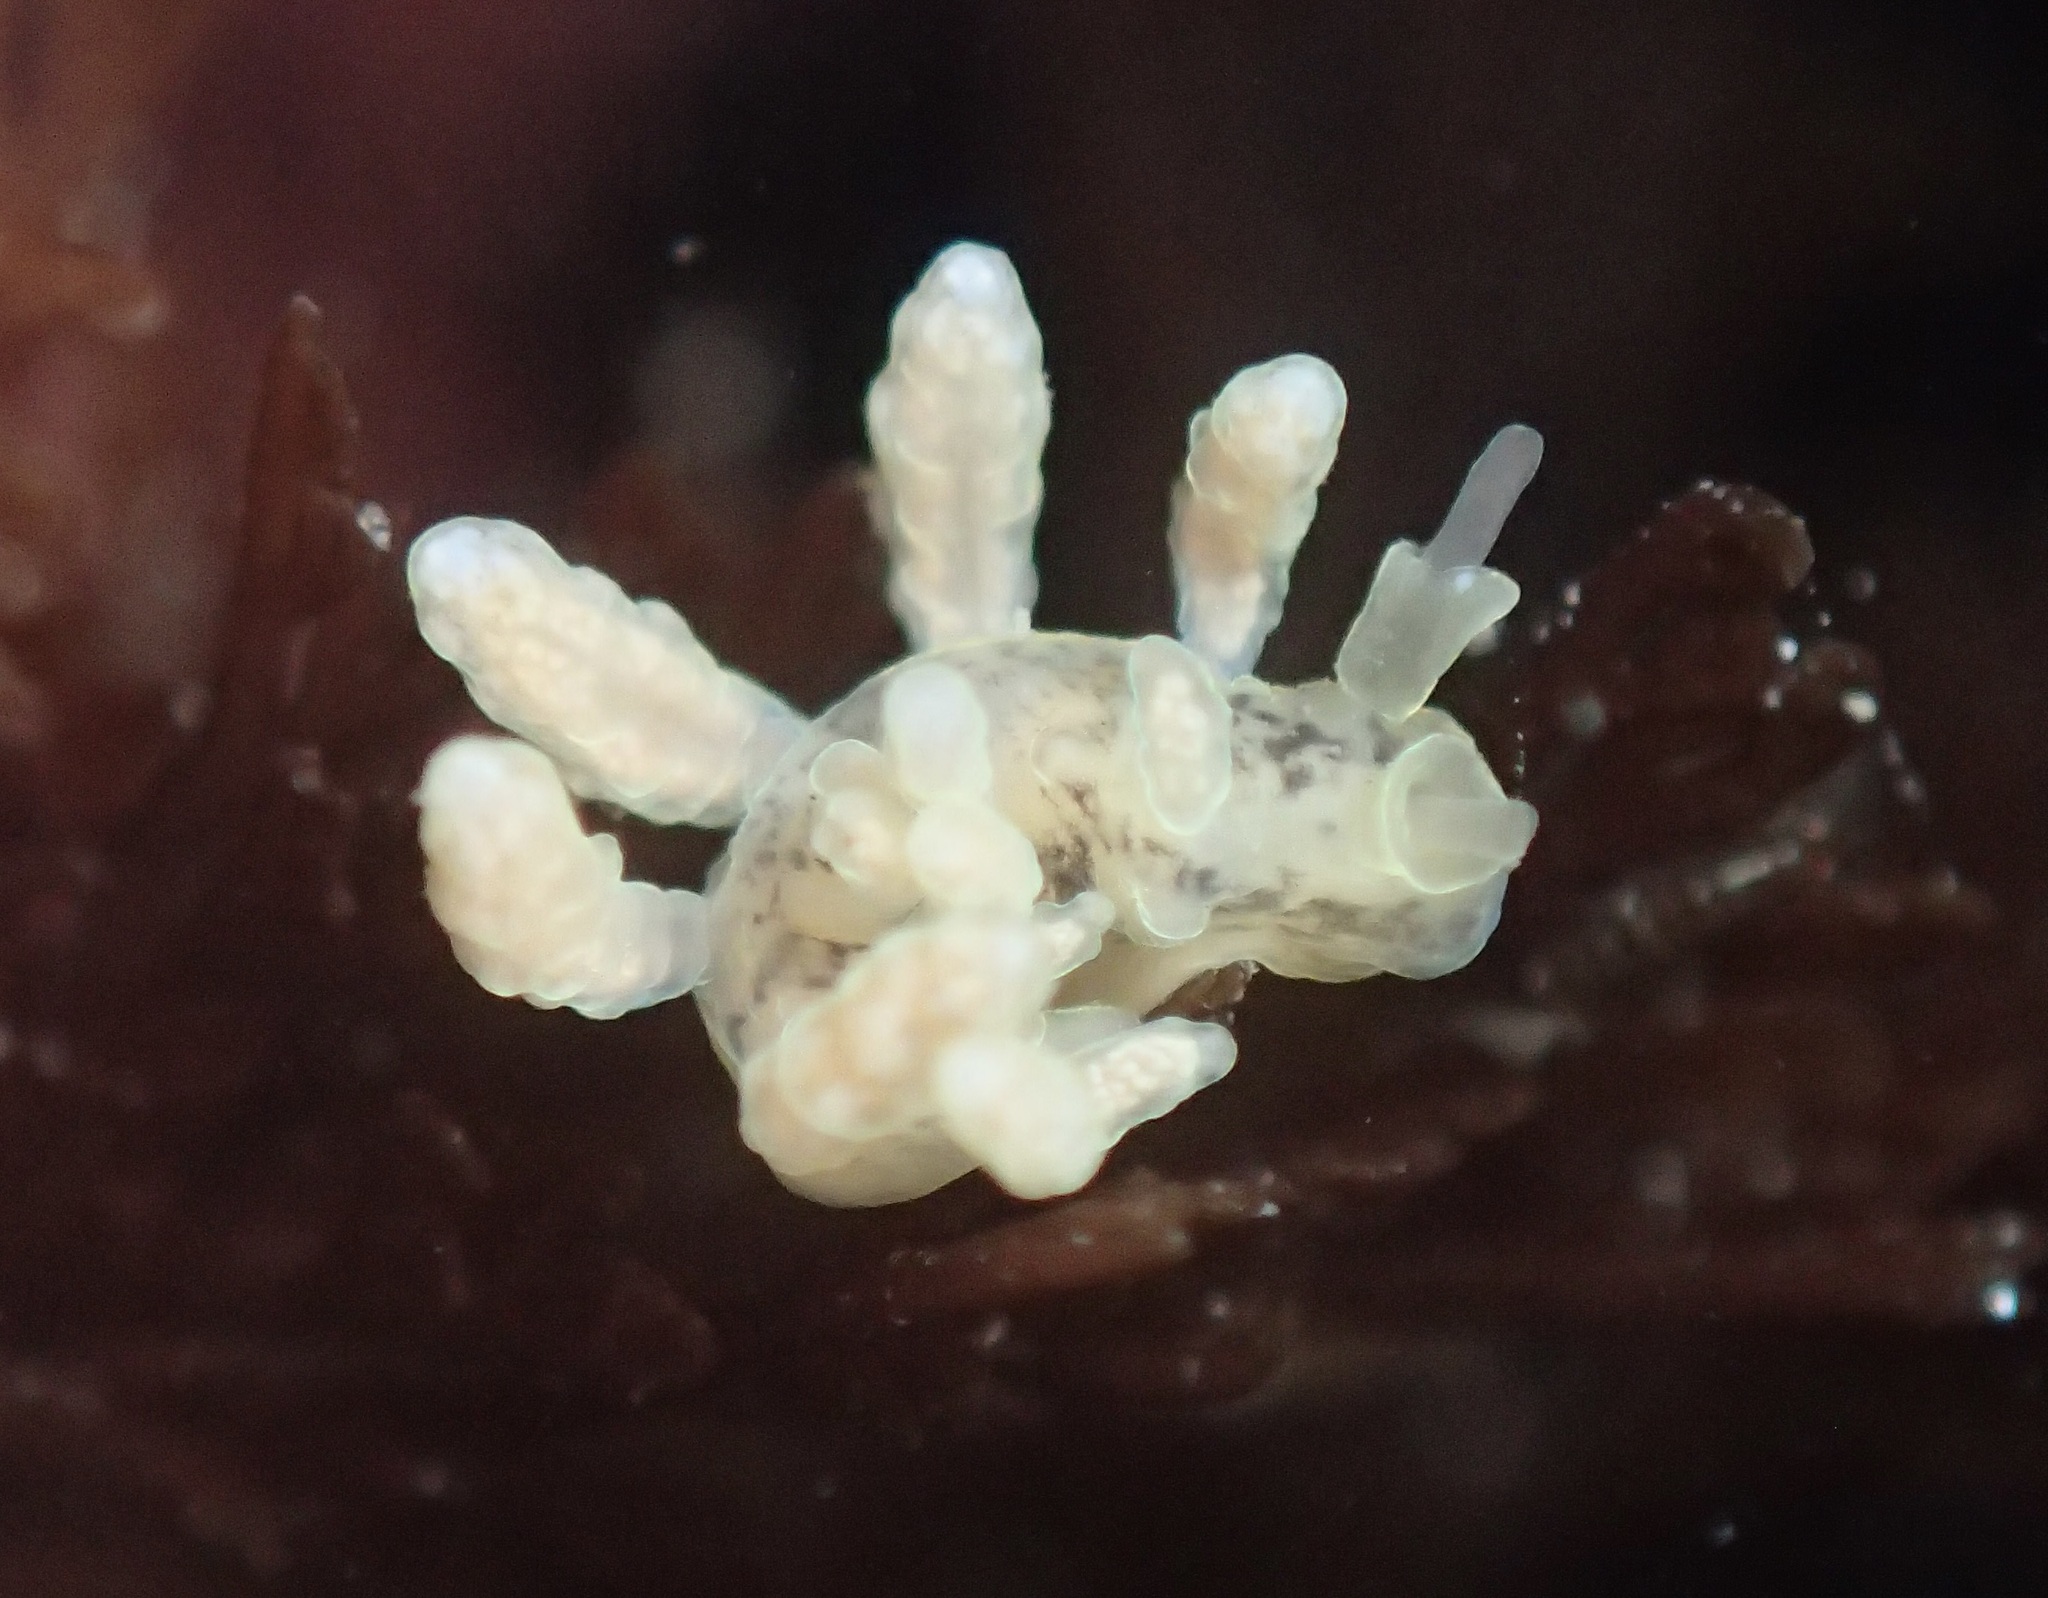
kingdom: Animalia
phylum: Mollusca
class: Gastropoda
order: Nudibranchia
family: Dotidae
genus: Doto
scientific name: Doto columbiana
